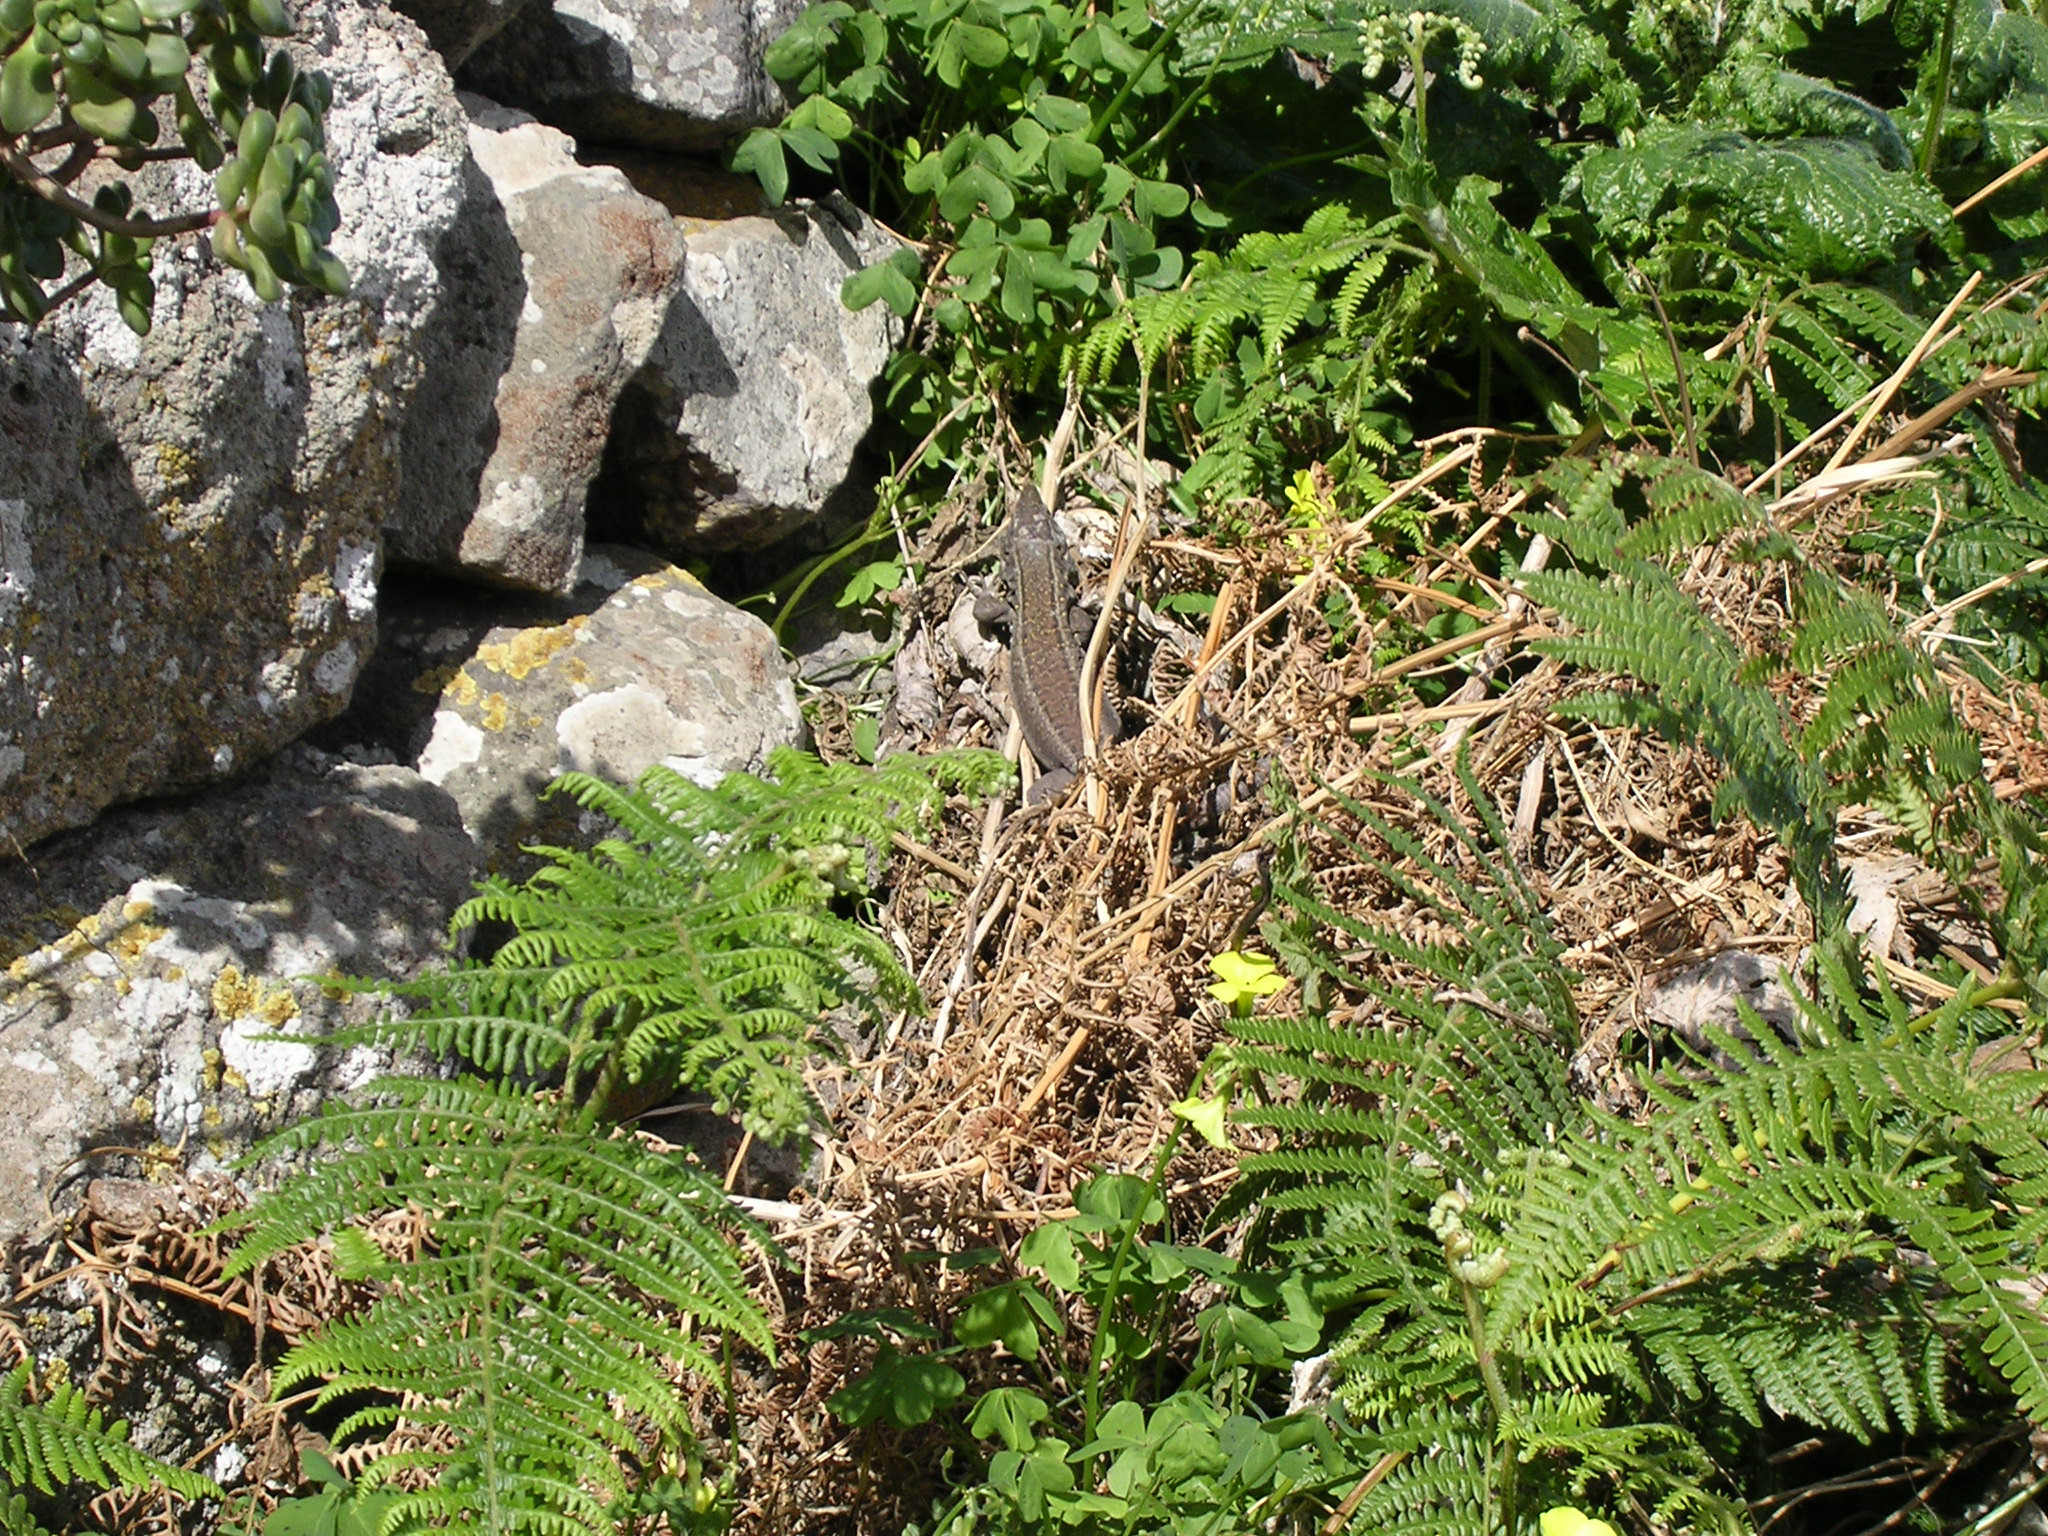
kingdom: Animalia
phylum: Chordata
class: Squamata
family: Lacertidae
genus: Gallotia
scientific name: Gallotia galloti
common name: Gallot's lizard
